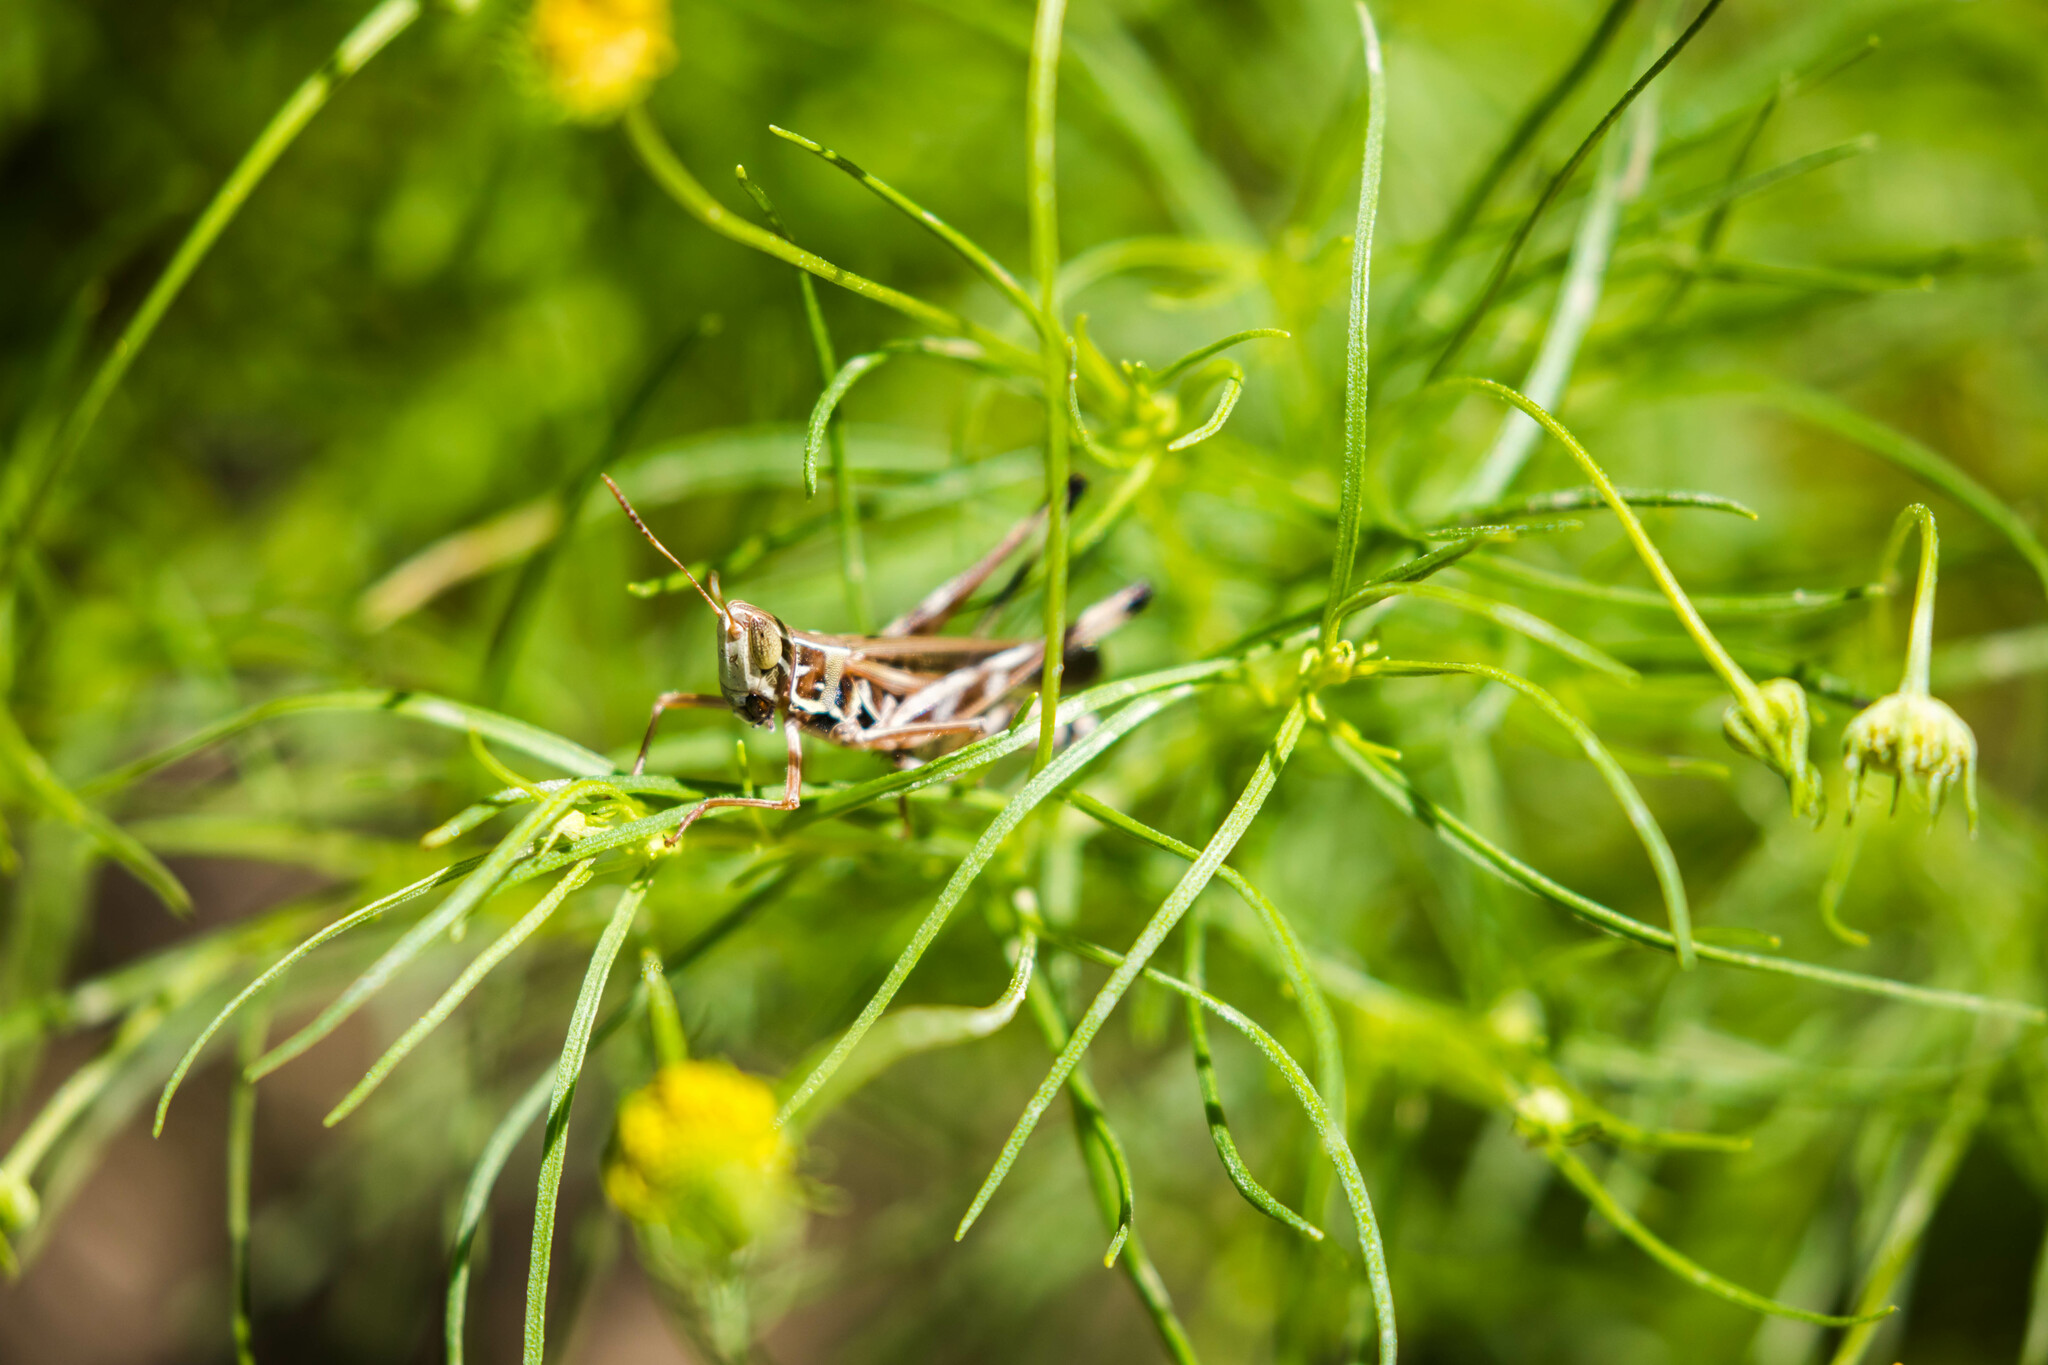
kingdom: Animalia
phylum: Arthropoda
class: Insecta
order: Orthoptera
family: Acrididae
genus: Syrbula
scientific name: Syrbula admirabilis
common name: Handsome grasshopper
